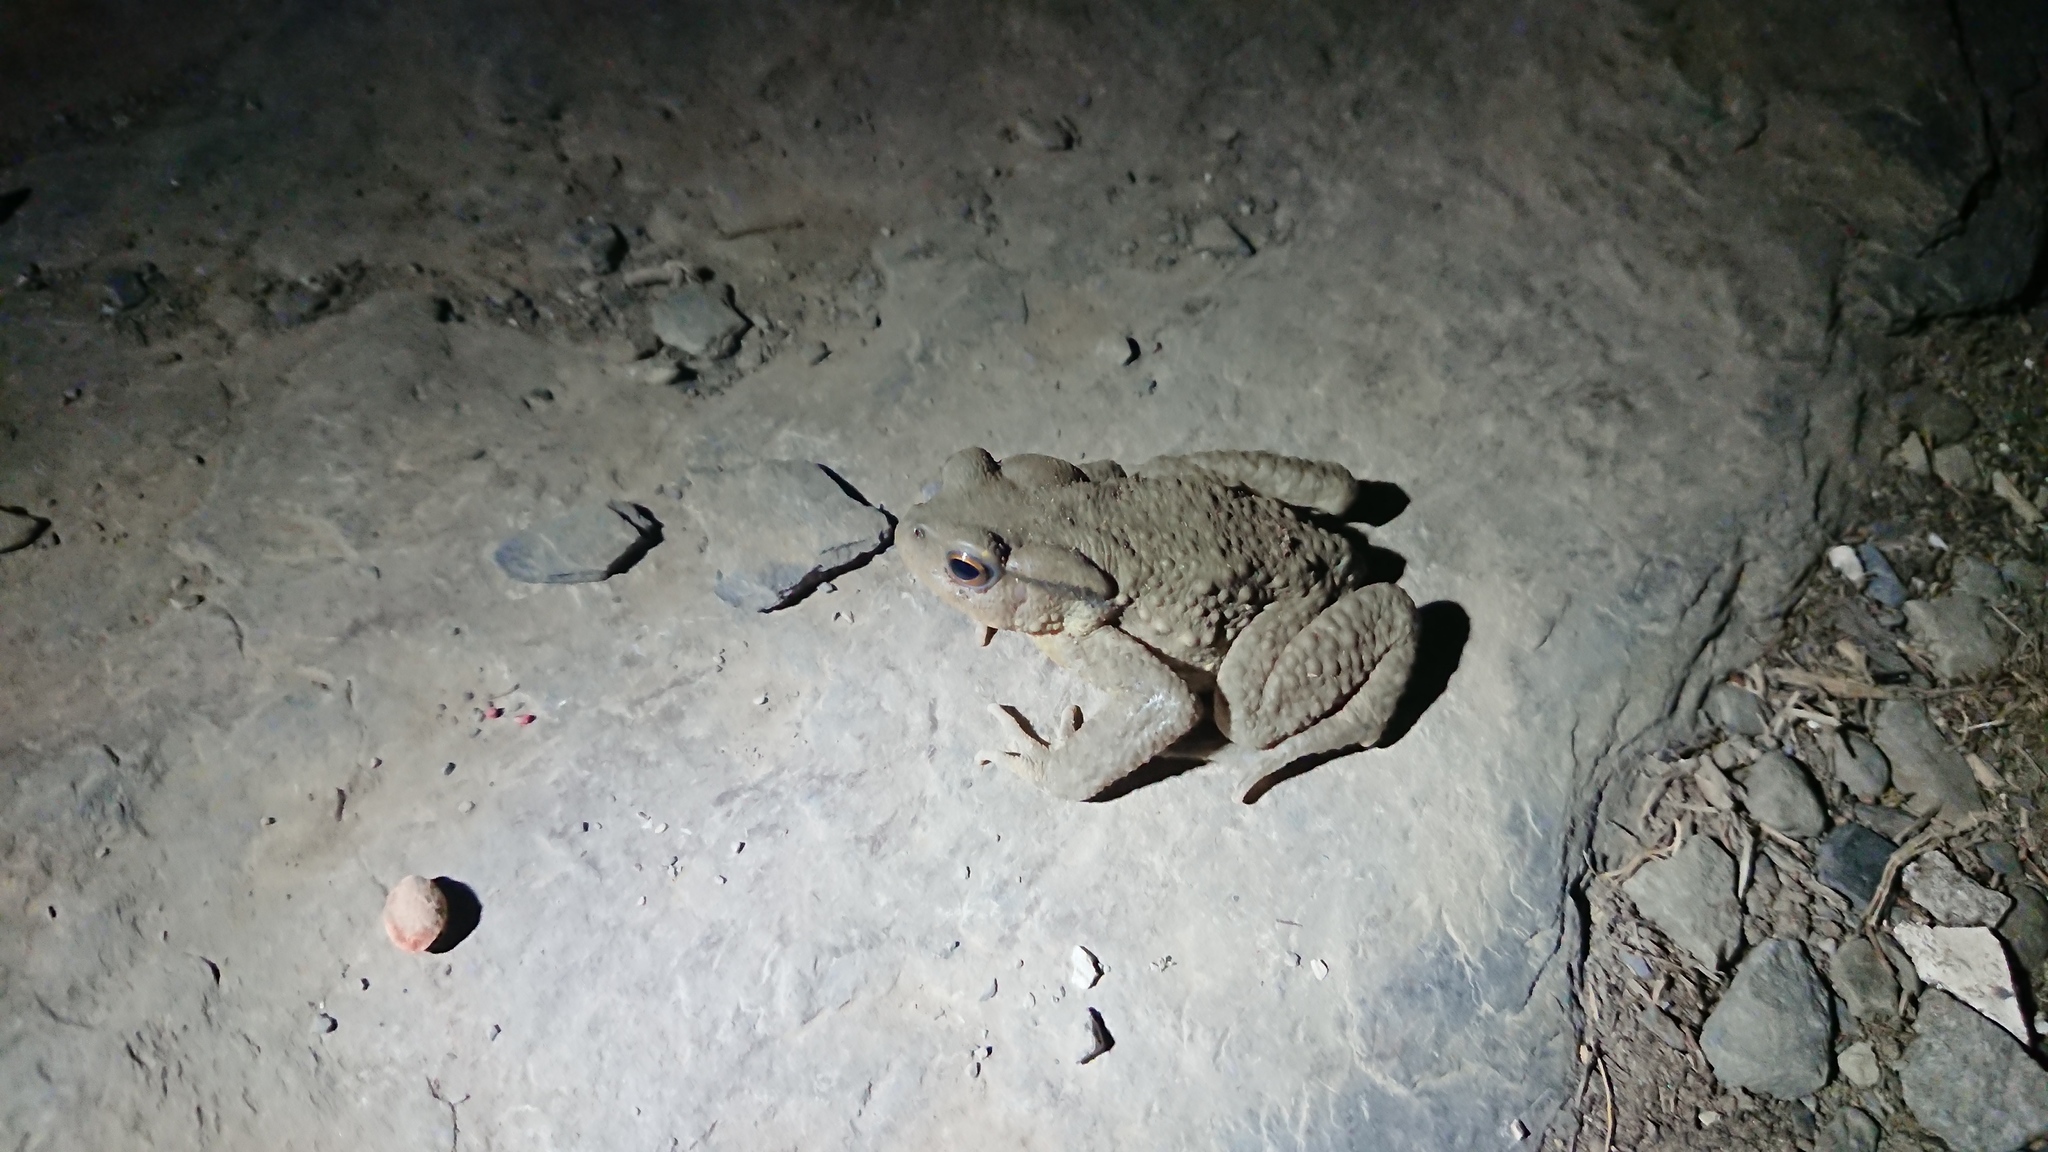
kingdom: Animalia
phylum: Chordata
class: Amphibia
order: Anura
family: Bufonidae
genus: Bufo
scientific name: Bufo bankorensis
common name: Bankor toad
